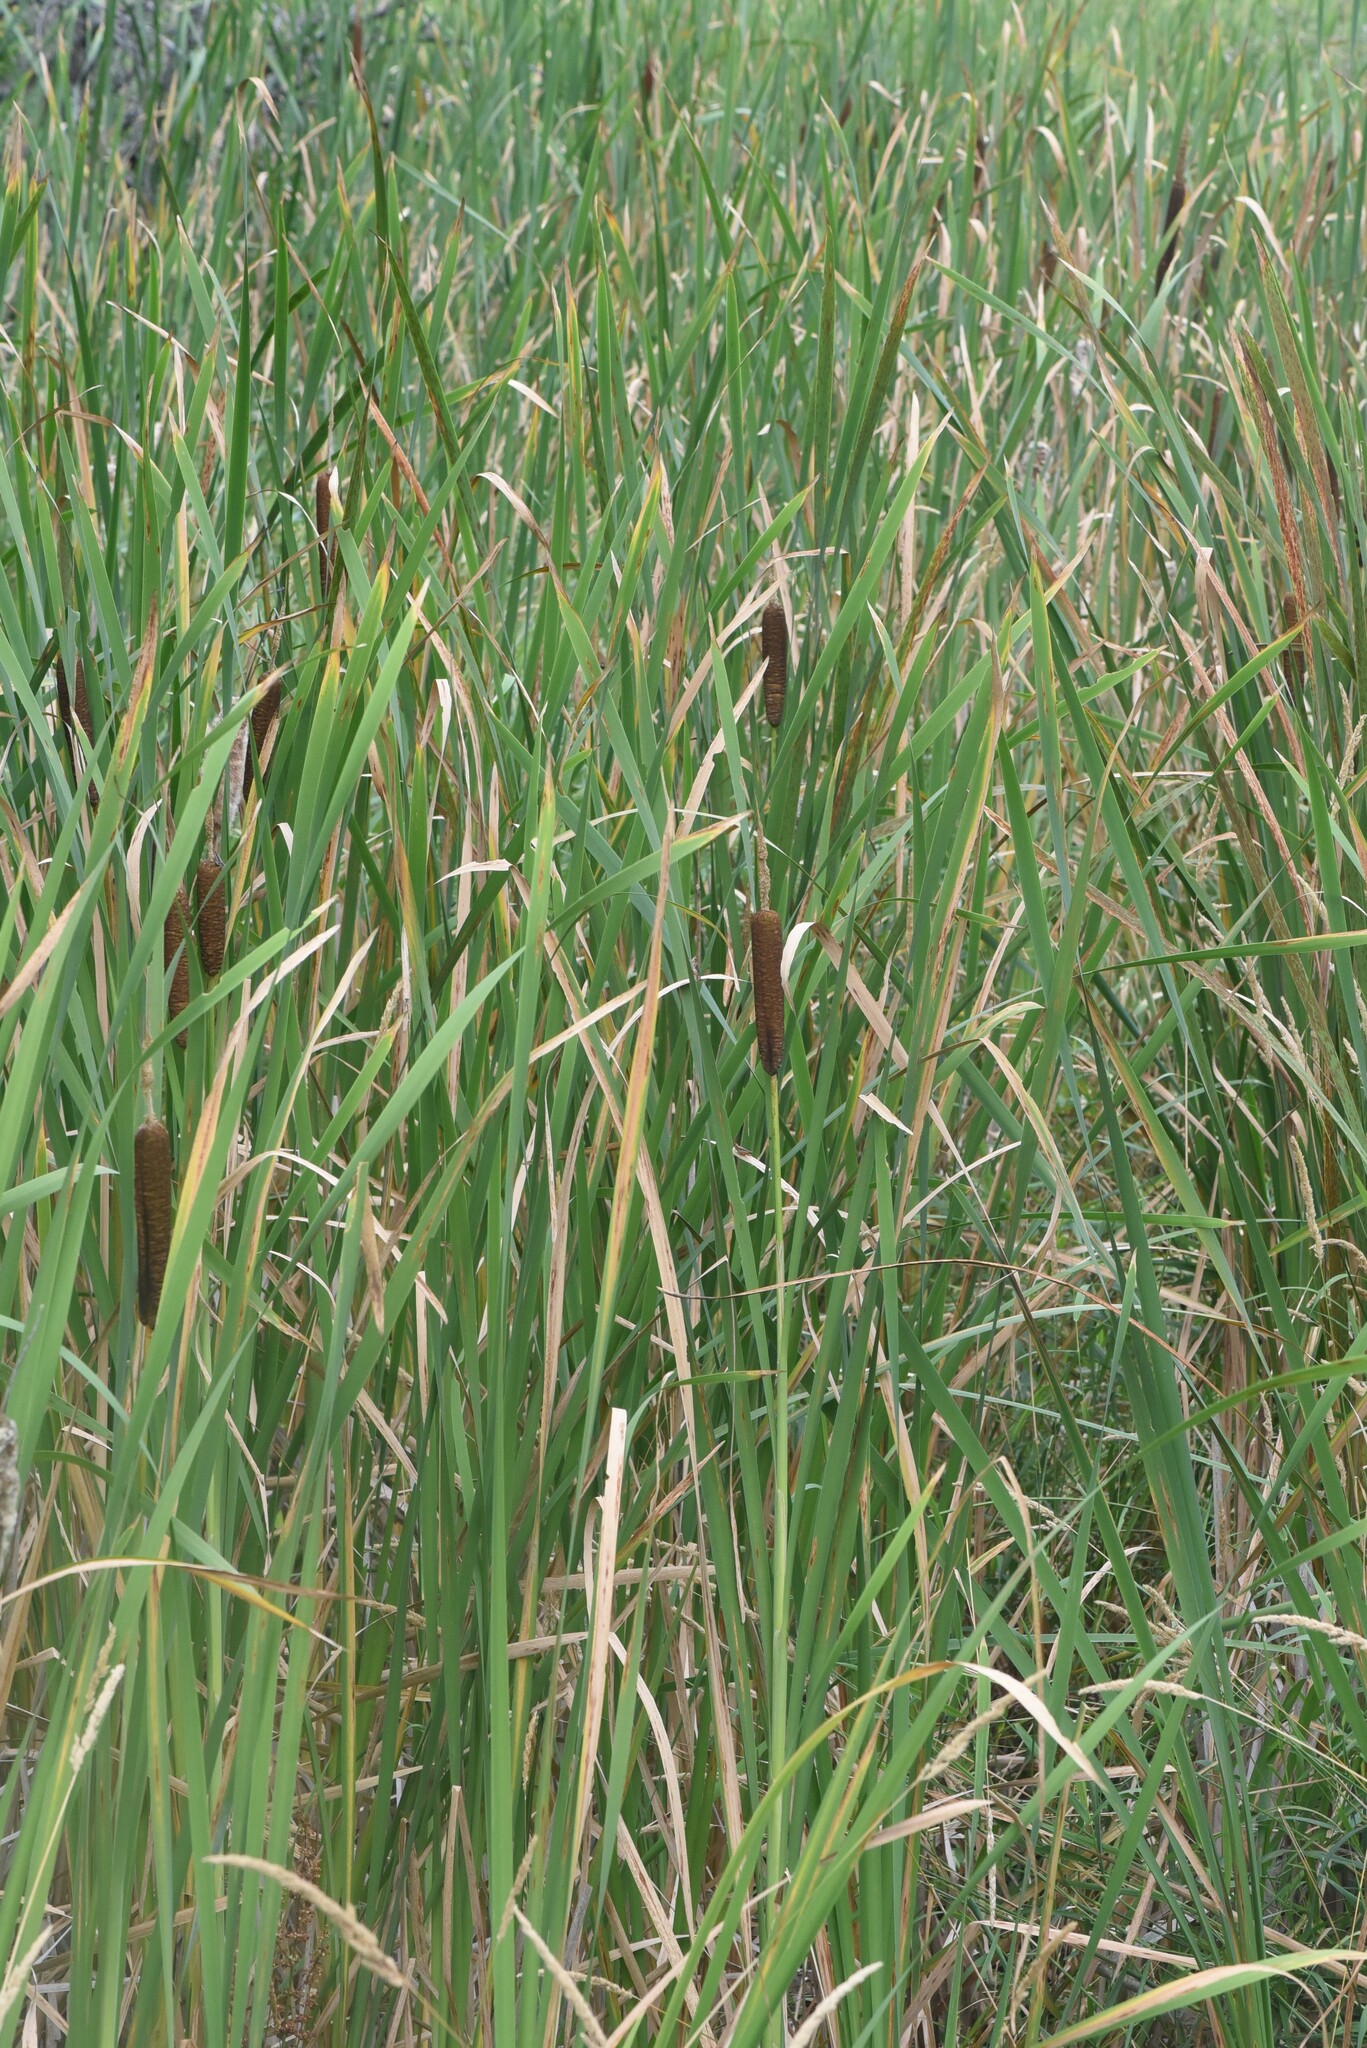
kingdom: Plantae
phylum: Tracheophyta
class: Liliopsida
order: Poales
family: Typhaceae
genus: Typha
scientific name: Typha latifolia
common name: Broadleaf cattail
